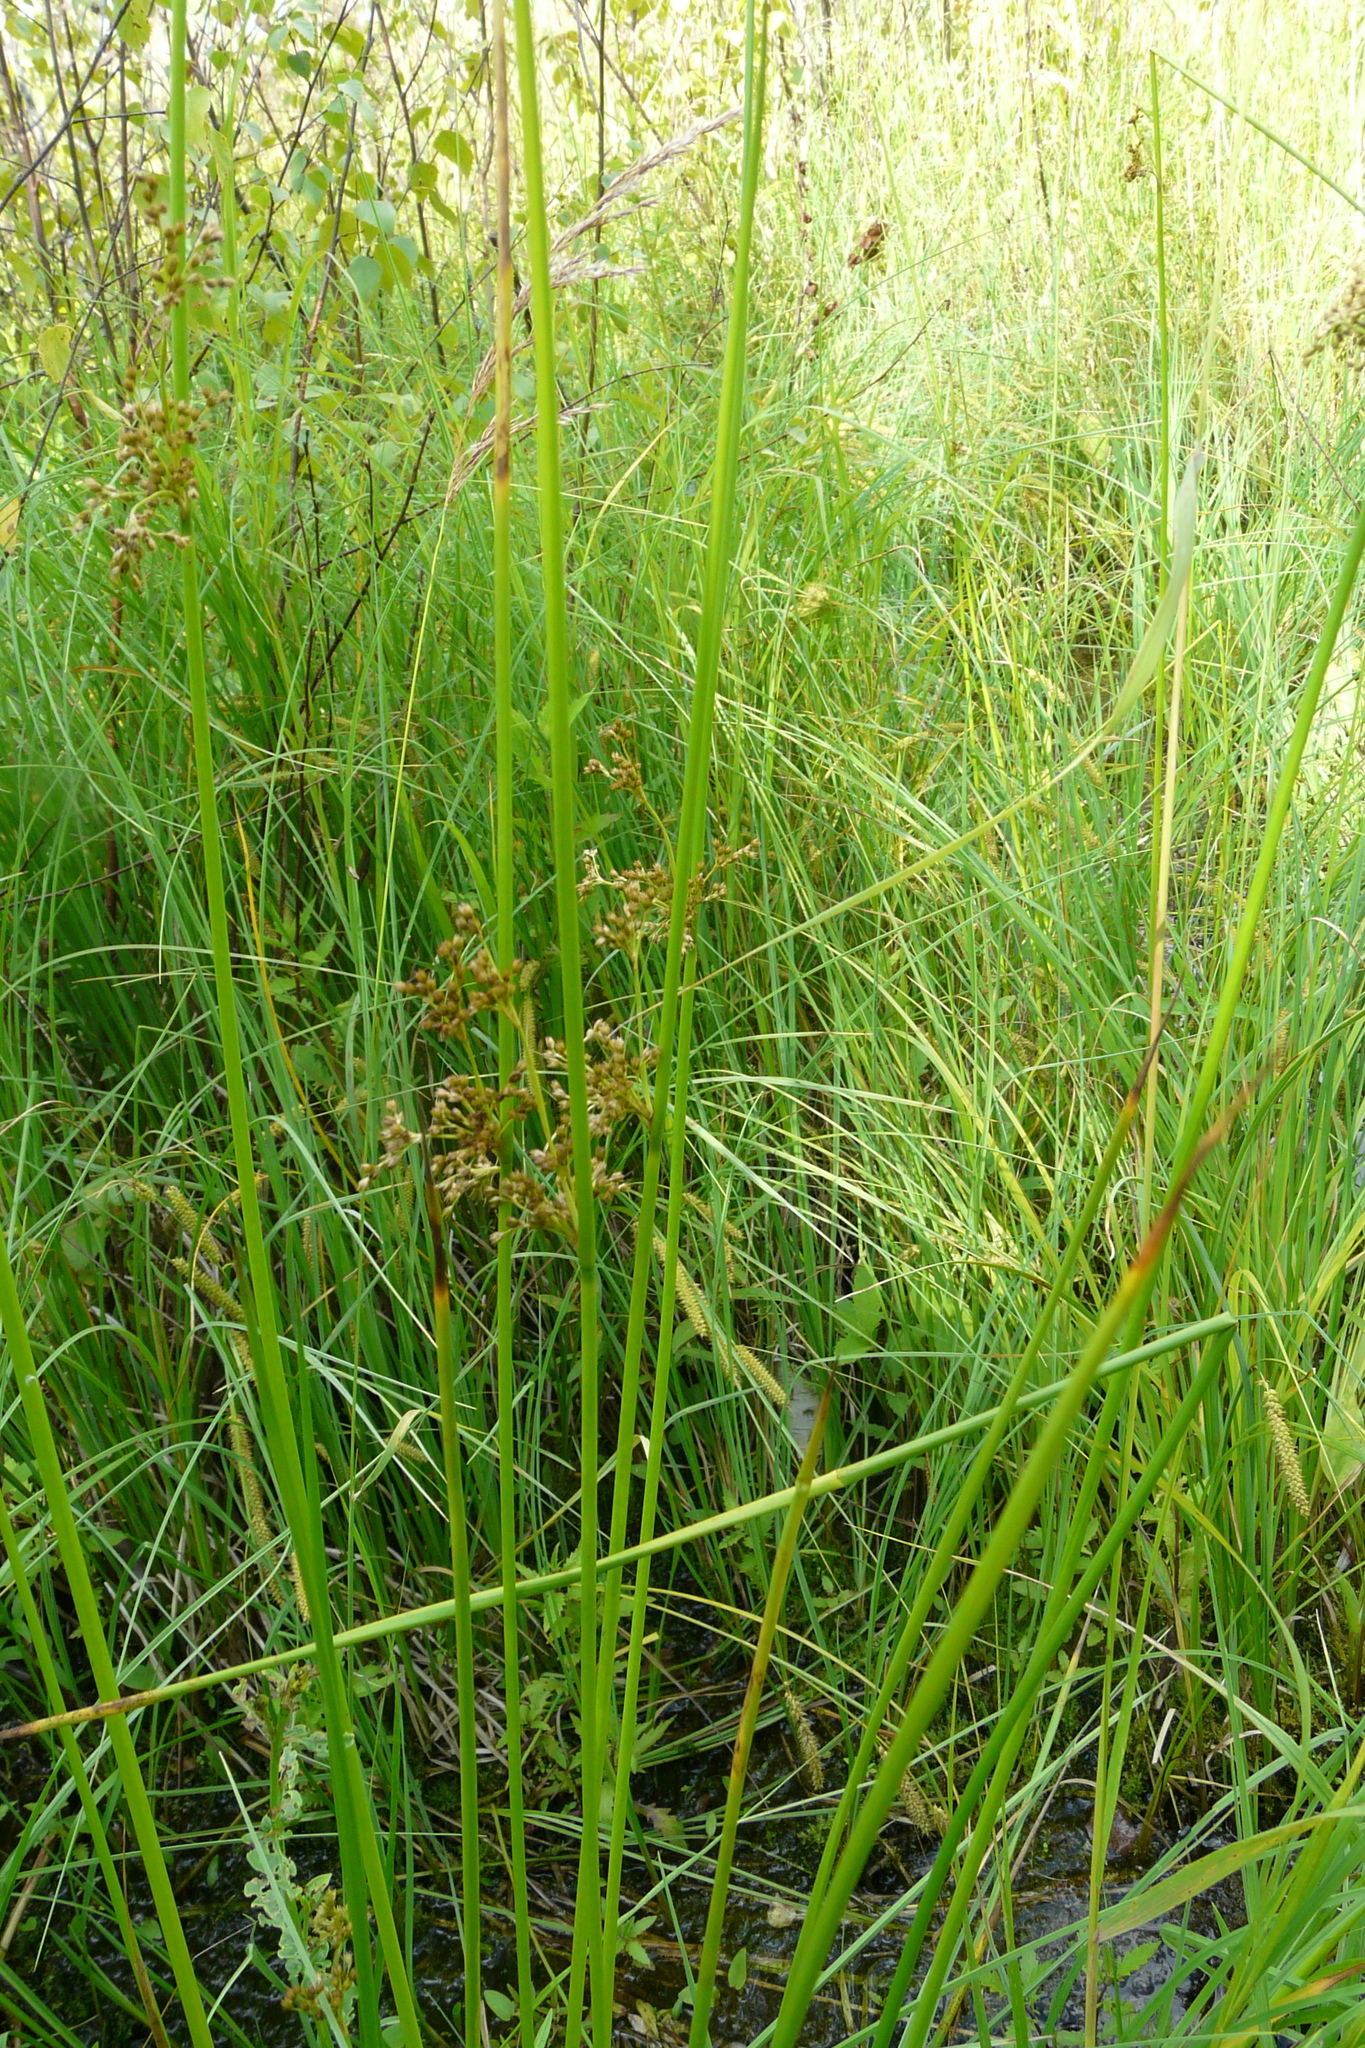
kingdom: Plantae
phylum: Tracheophyta
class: Liliopsida
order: Poales
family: Juncaceae
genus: Juncus
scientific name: Juncus effusus
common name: Soft rush
